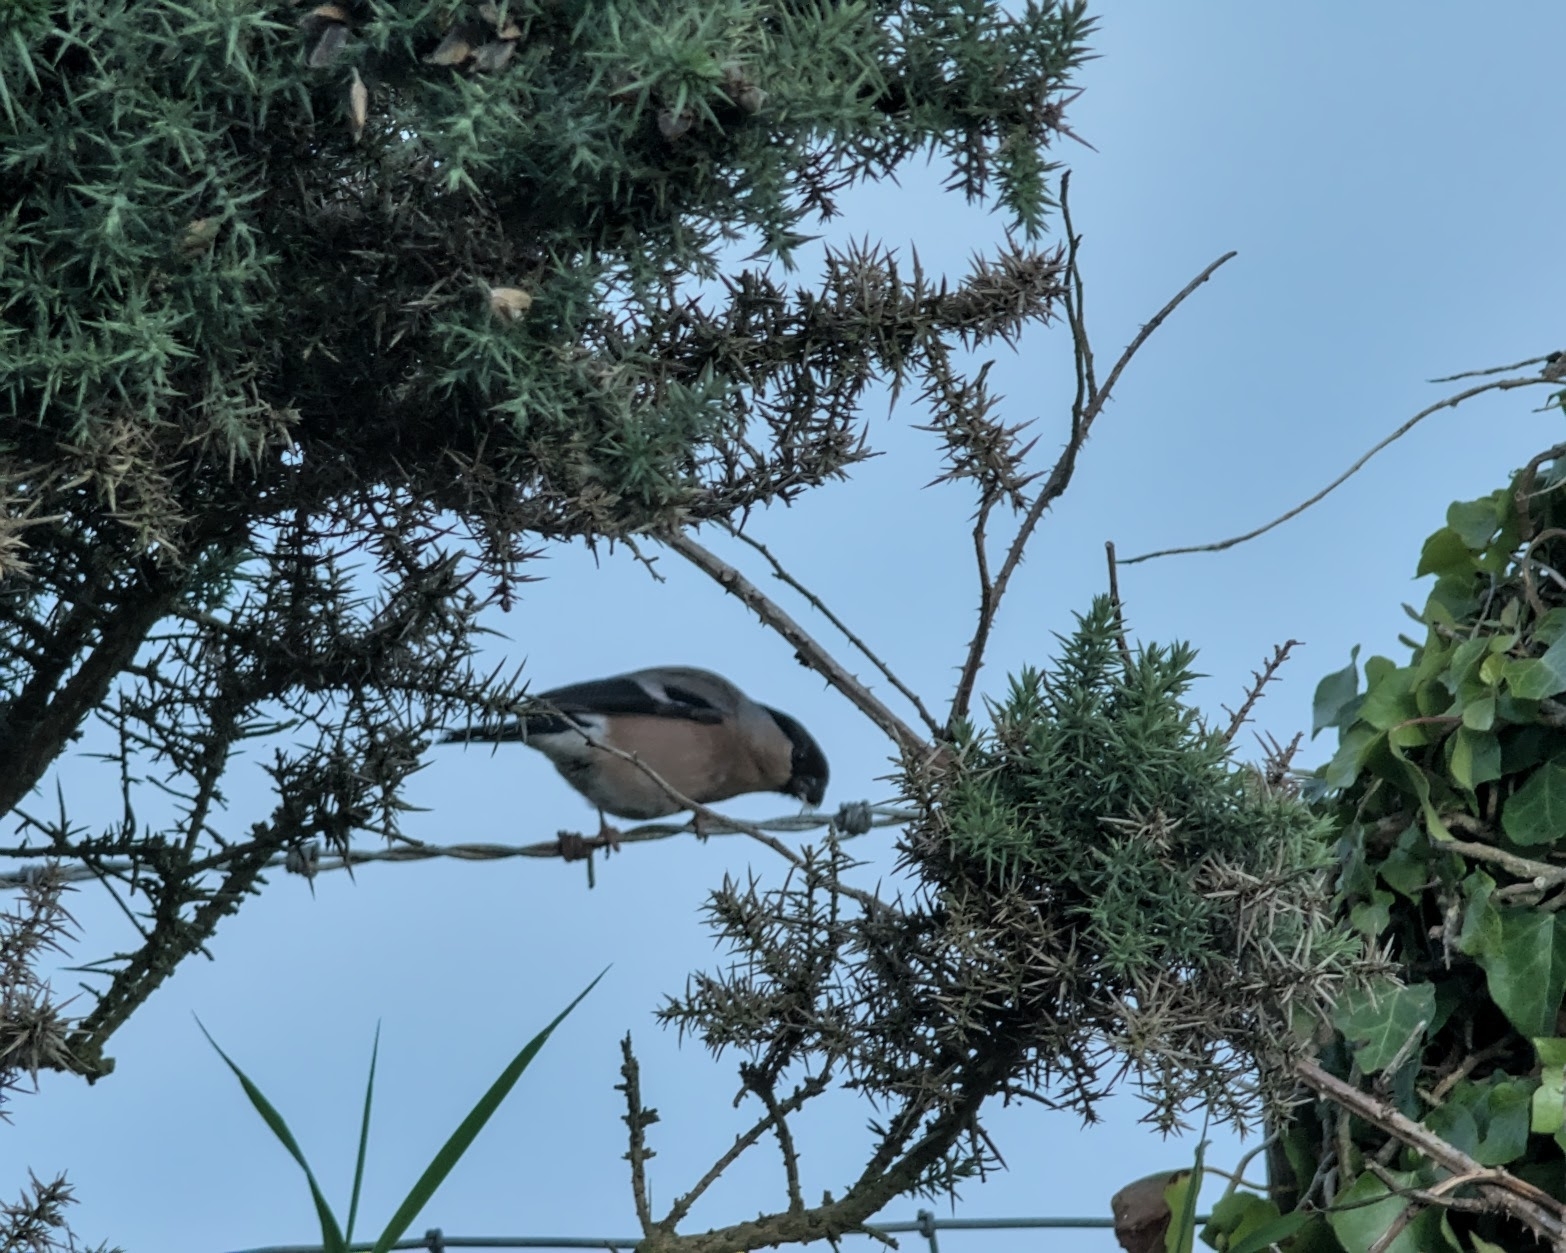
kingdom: Animalia
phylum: Chordata
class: Aves
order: Passeriformes
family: Fringillidae
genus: Pyrrhula
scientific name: Pyrrhula pyrrhula
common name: Eurasian bullfinch
